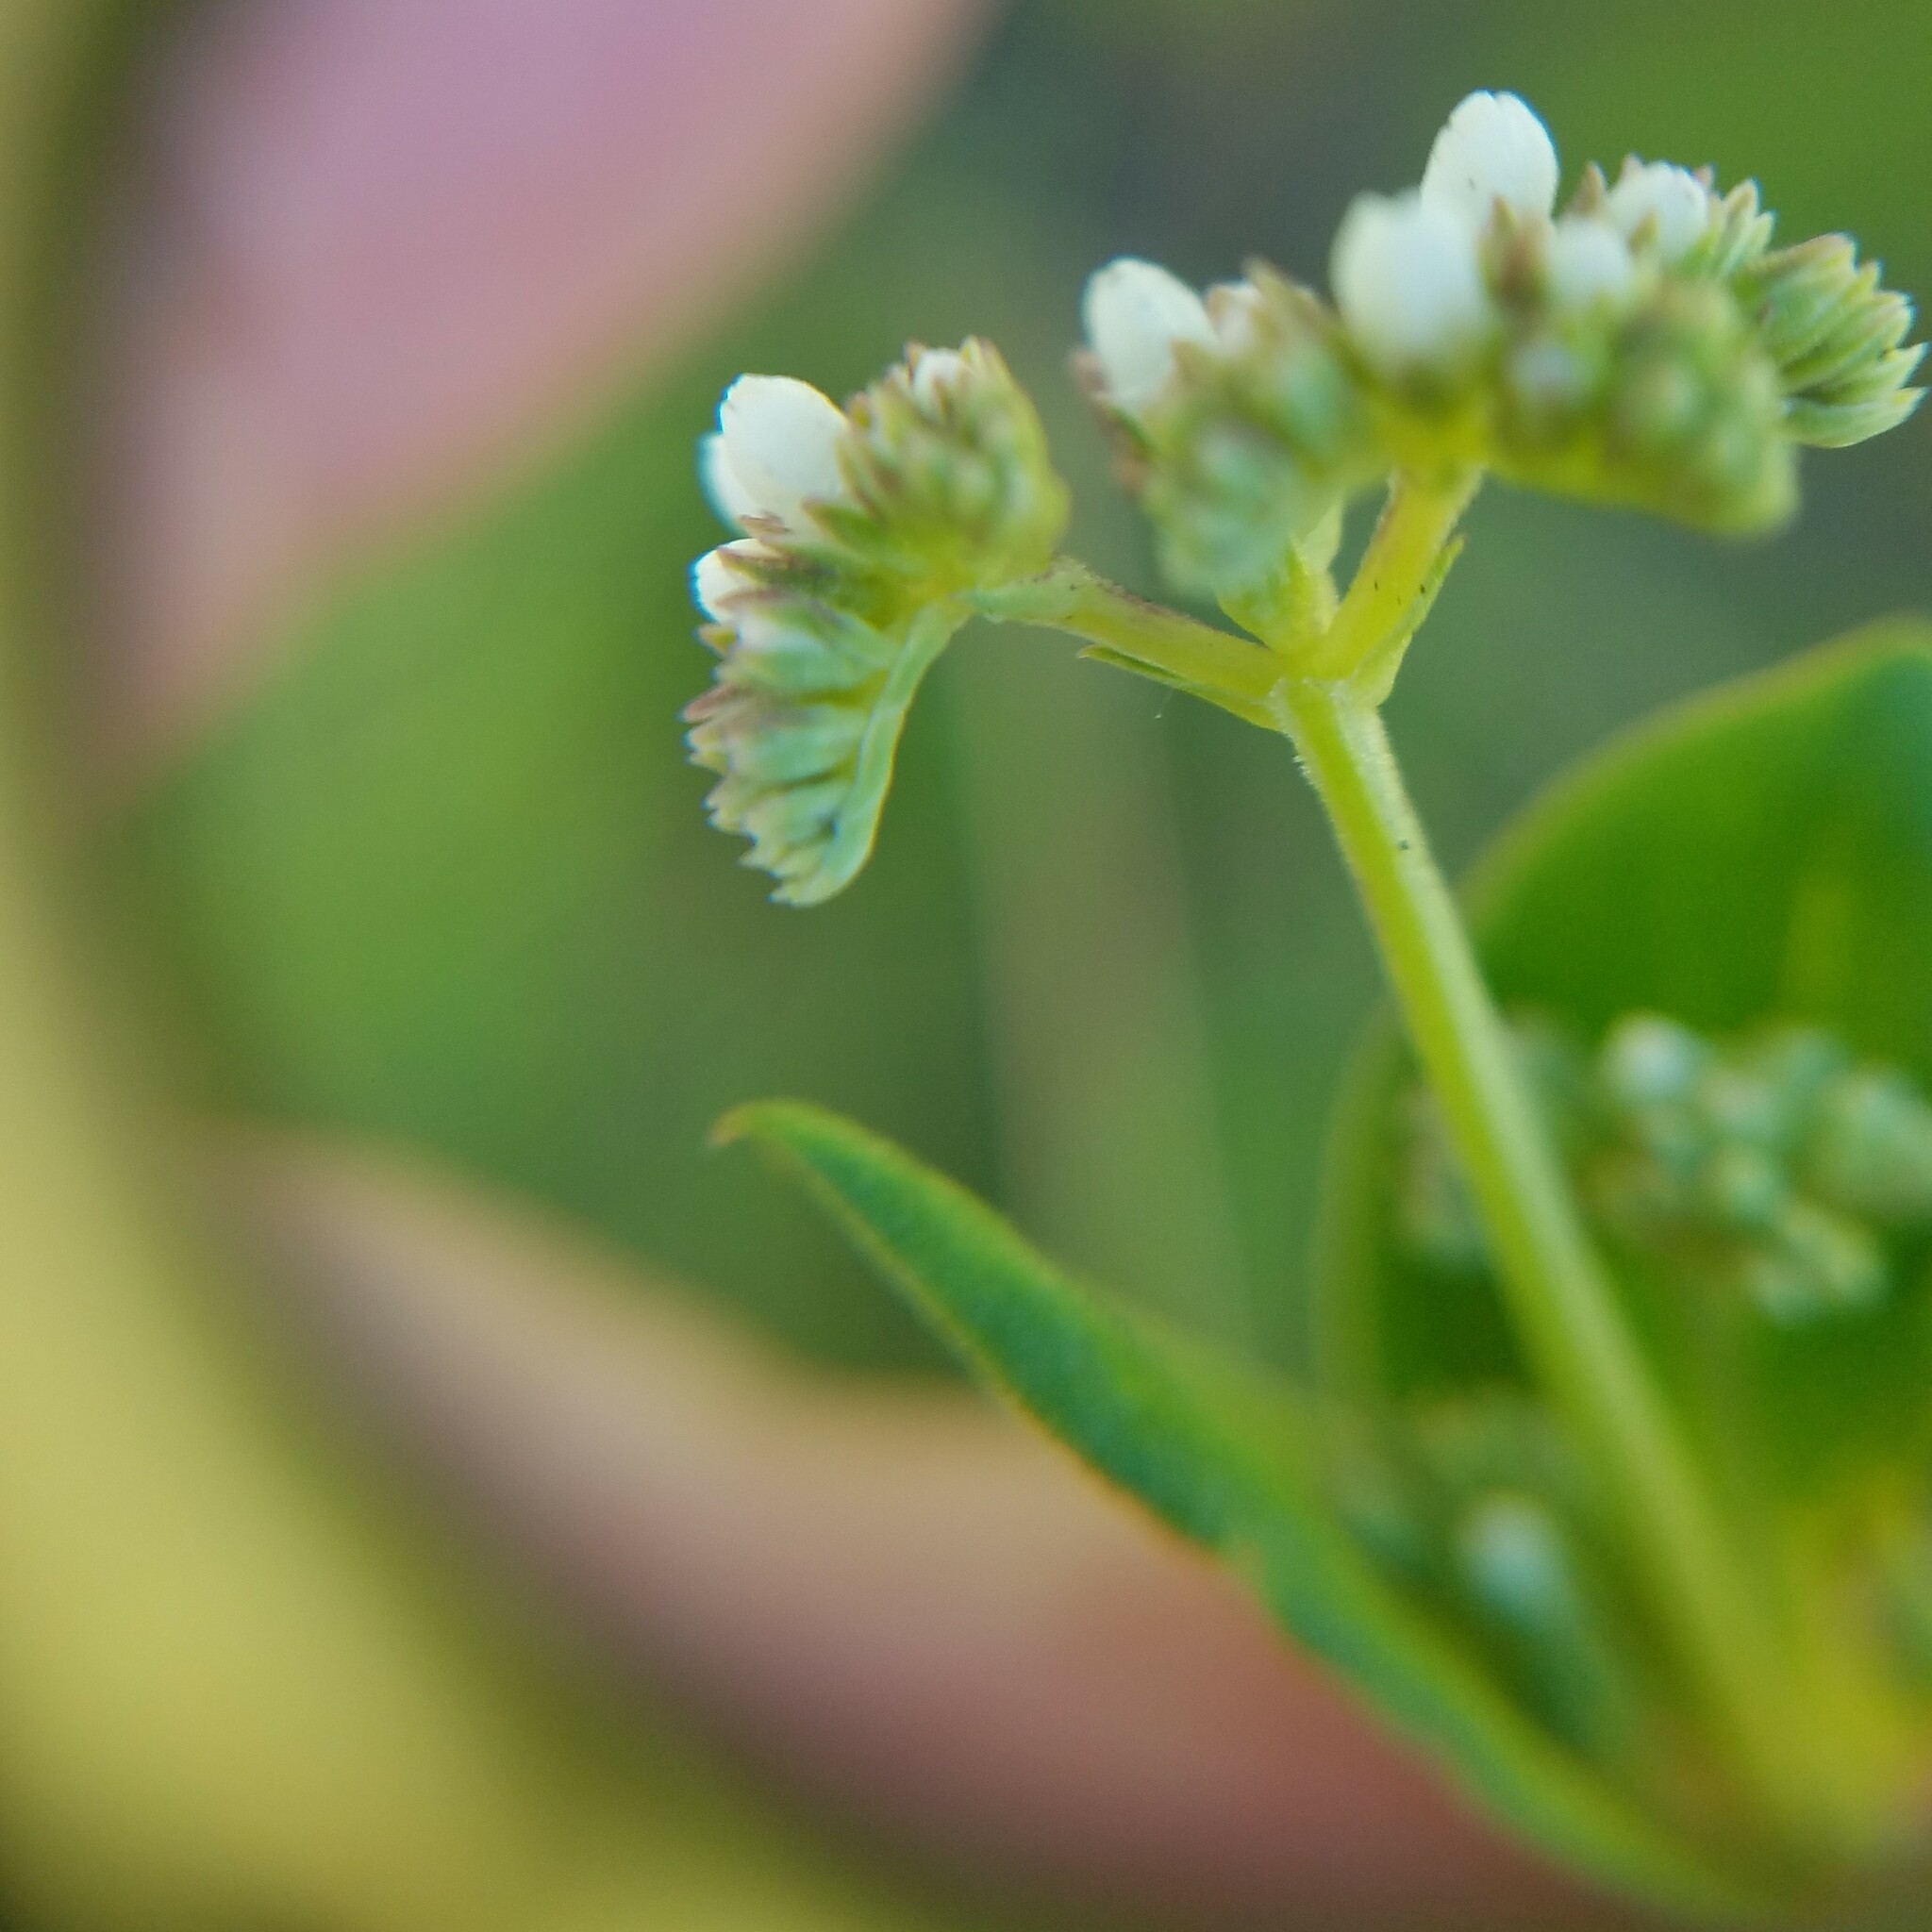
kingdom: Plantae
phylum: Tracheophyta
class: Magnoliopsida
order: Gentianales
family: Loganiaceae
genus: Mitreola
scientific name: Mitreola sessilifolia
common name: Swamp hornpod
